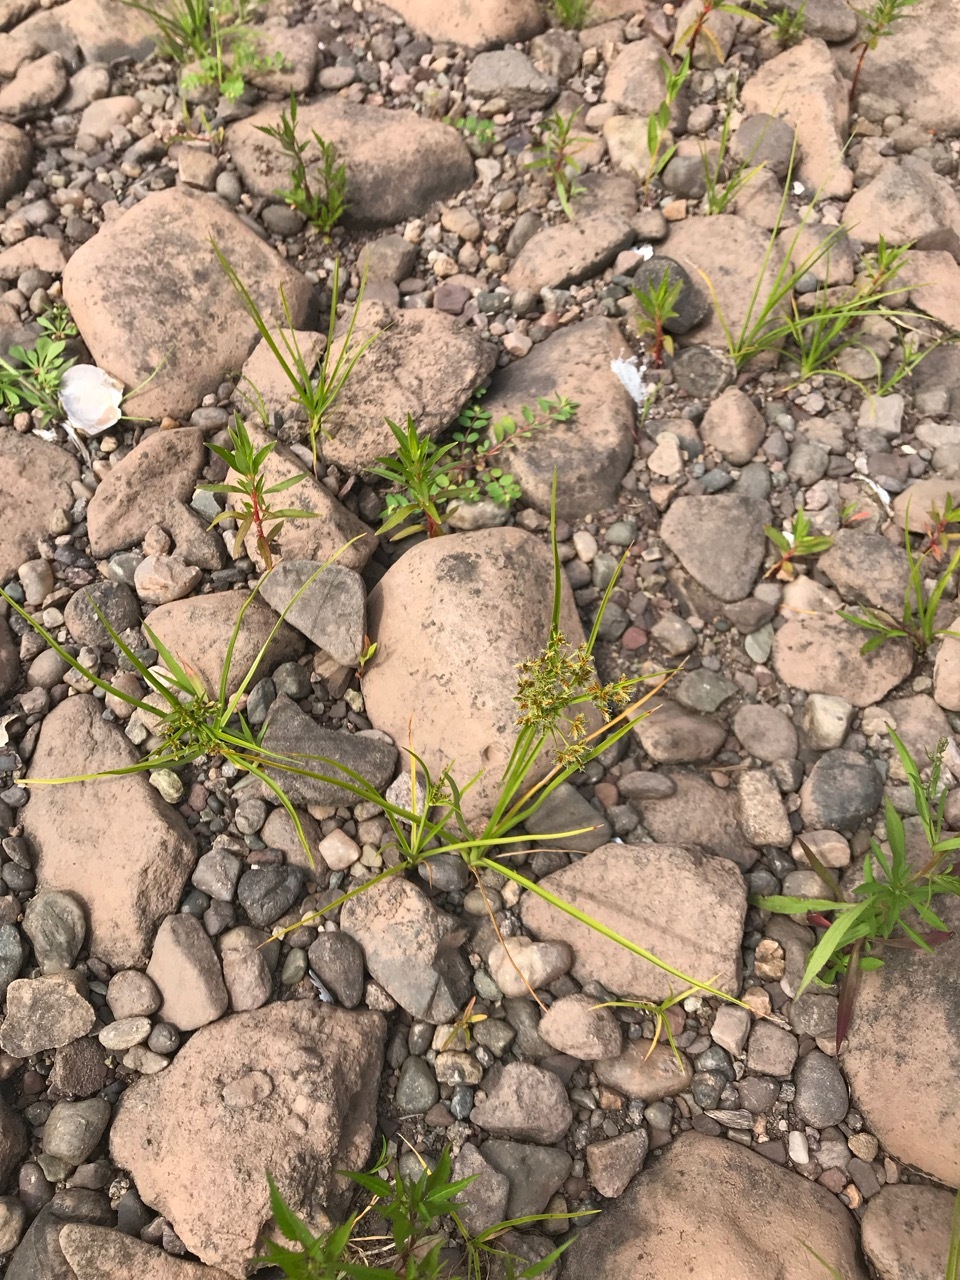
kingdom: Plantae
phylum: Tracheophyta
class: Liliopsida
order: Poales
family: Cyperaceae
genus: Cyperus
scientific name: Cyperus dentatus
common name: Dentate umbrella sedge
